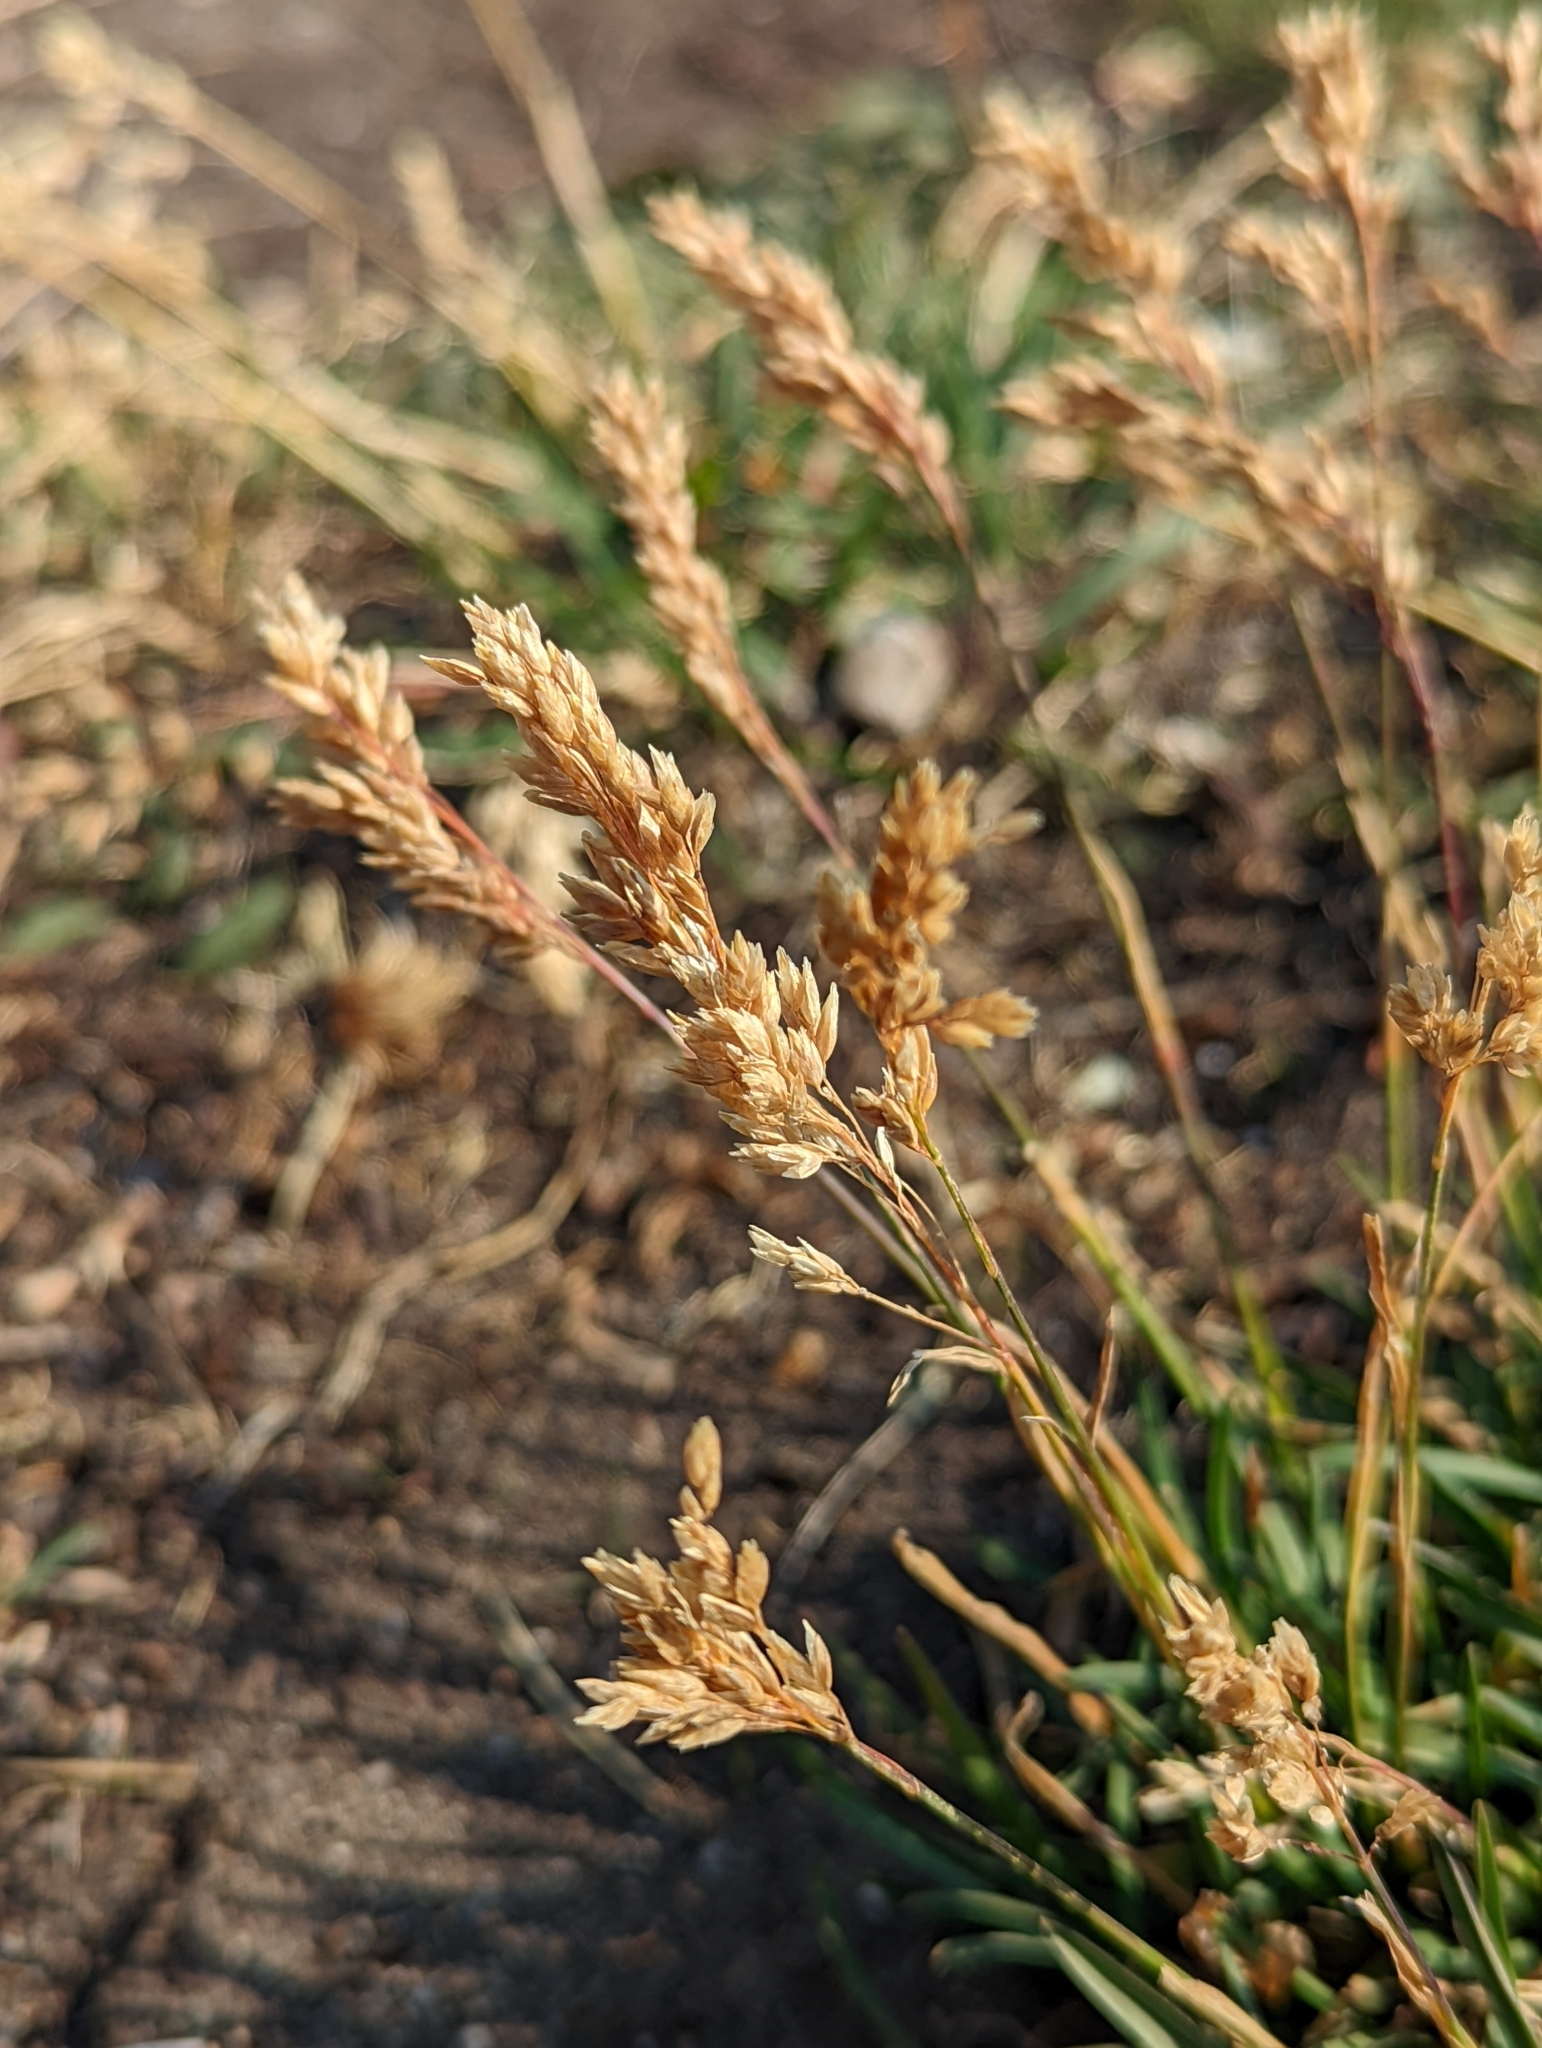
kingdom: Plantae
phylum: Tracheophyta
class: Liliopsida
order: Poales
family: Poaceae
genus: Poa
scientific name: Poa alpina
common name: Alpine bluegrass
